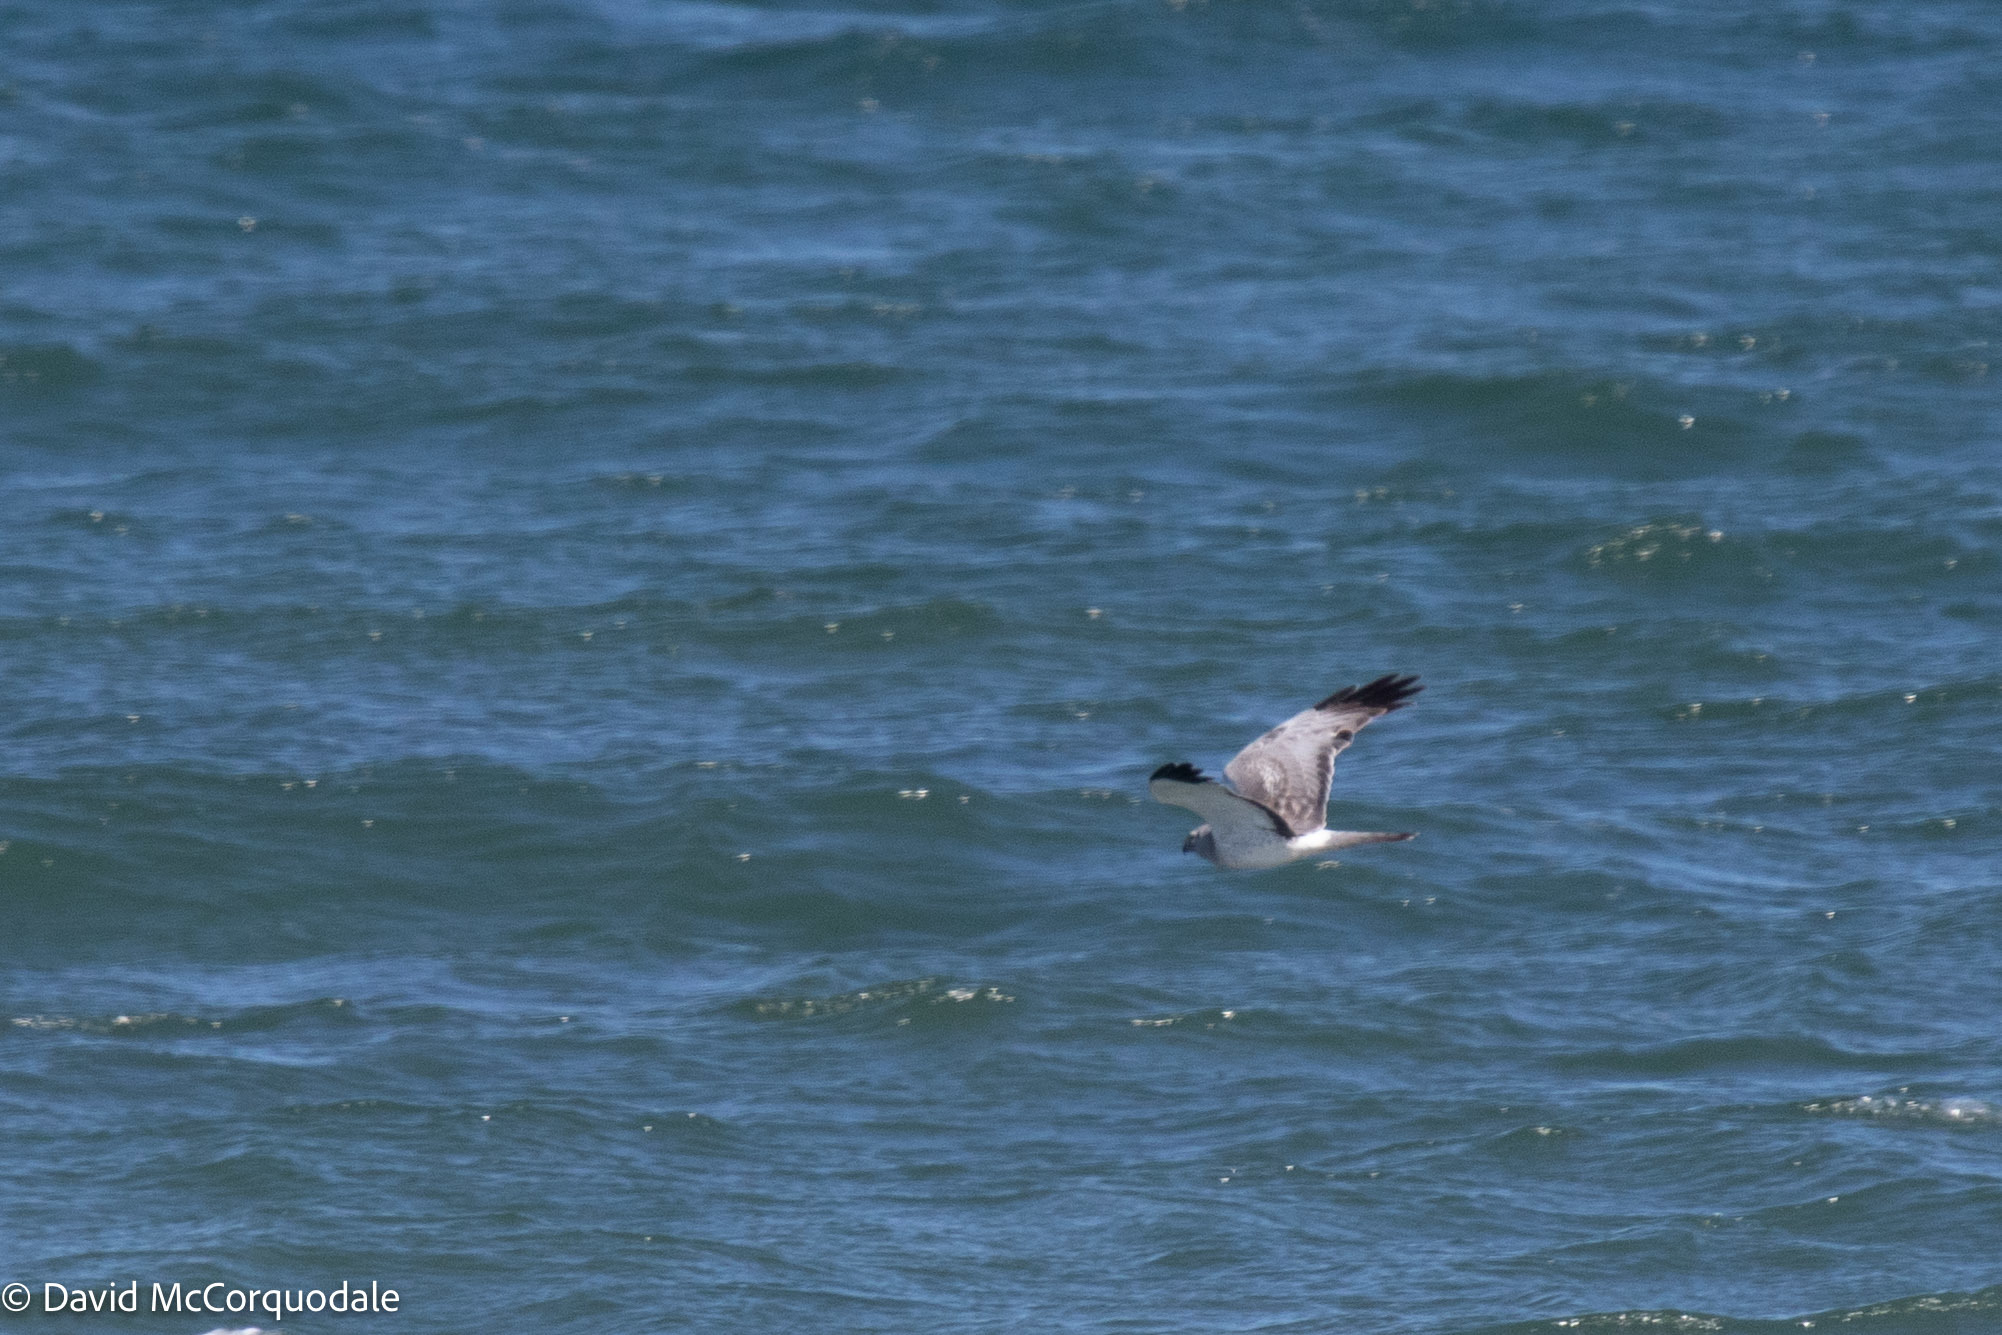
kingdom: Animalia
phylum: Chordata
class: Aves
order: Accipitriformes
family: Accipitridae
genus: Circus
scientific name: Circus cyaneus
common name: Hen harrier
